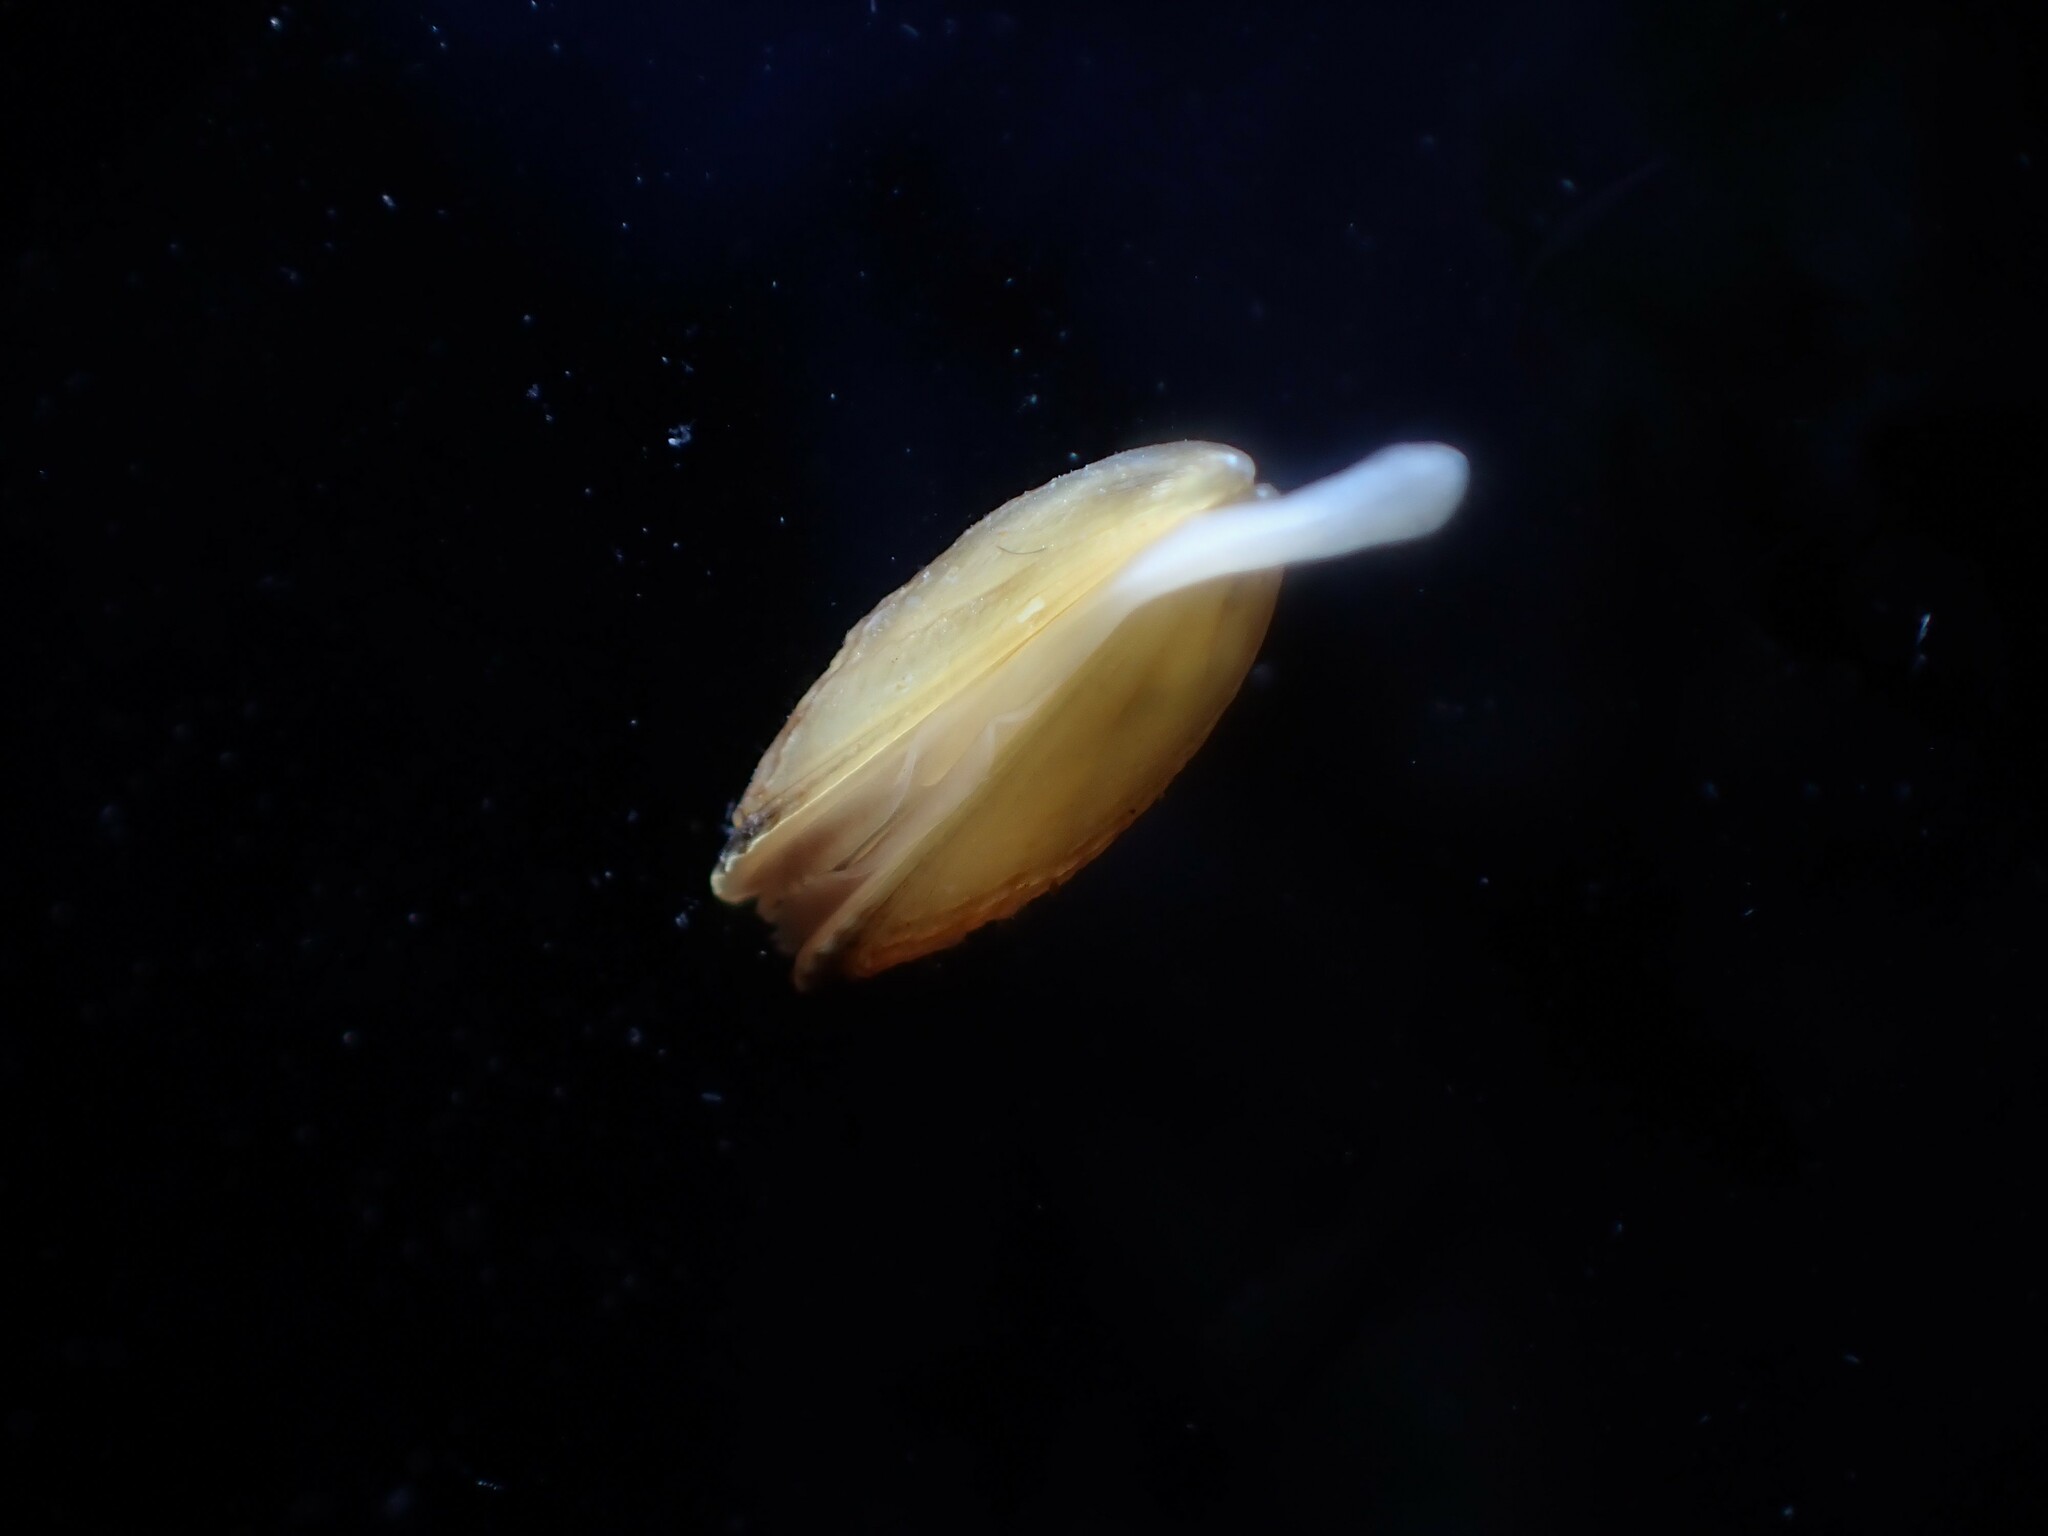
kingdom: Animalia
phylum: Mollusca
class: Bivalvia
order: Mytilida
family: Mytilidae
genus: Perna
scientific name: Perna canaliculus
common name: New zealand greenshelltm
